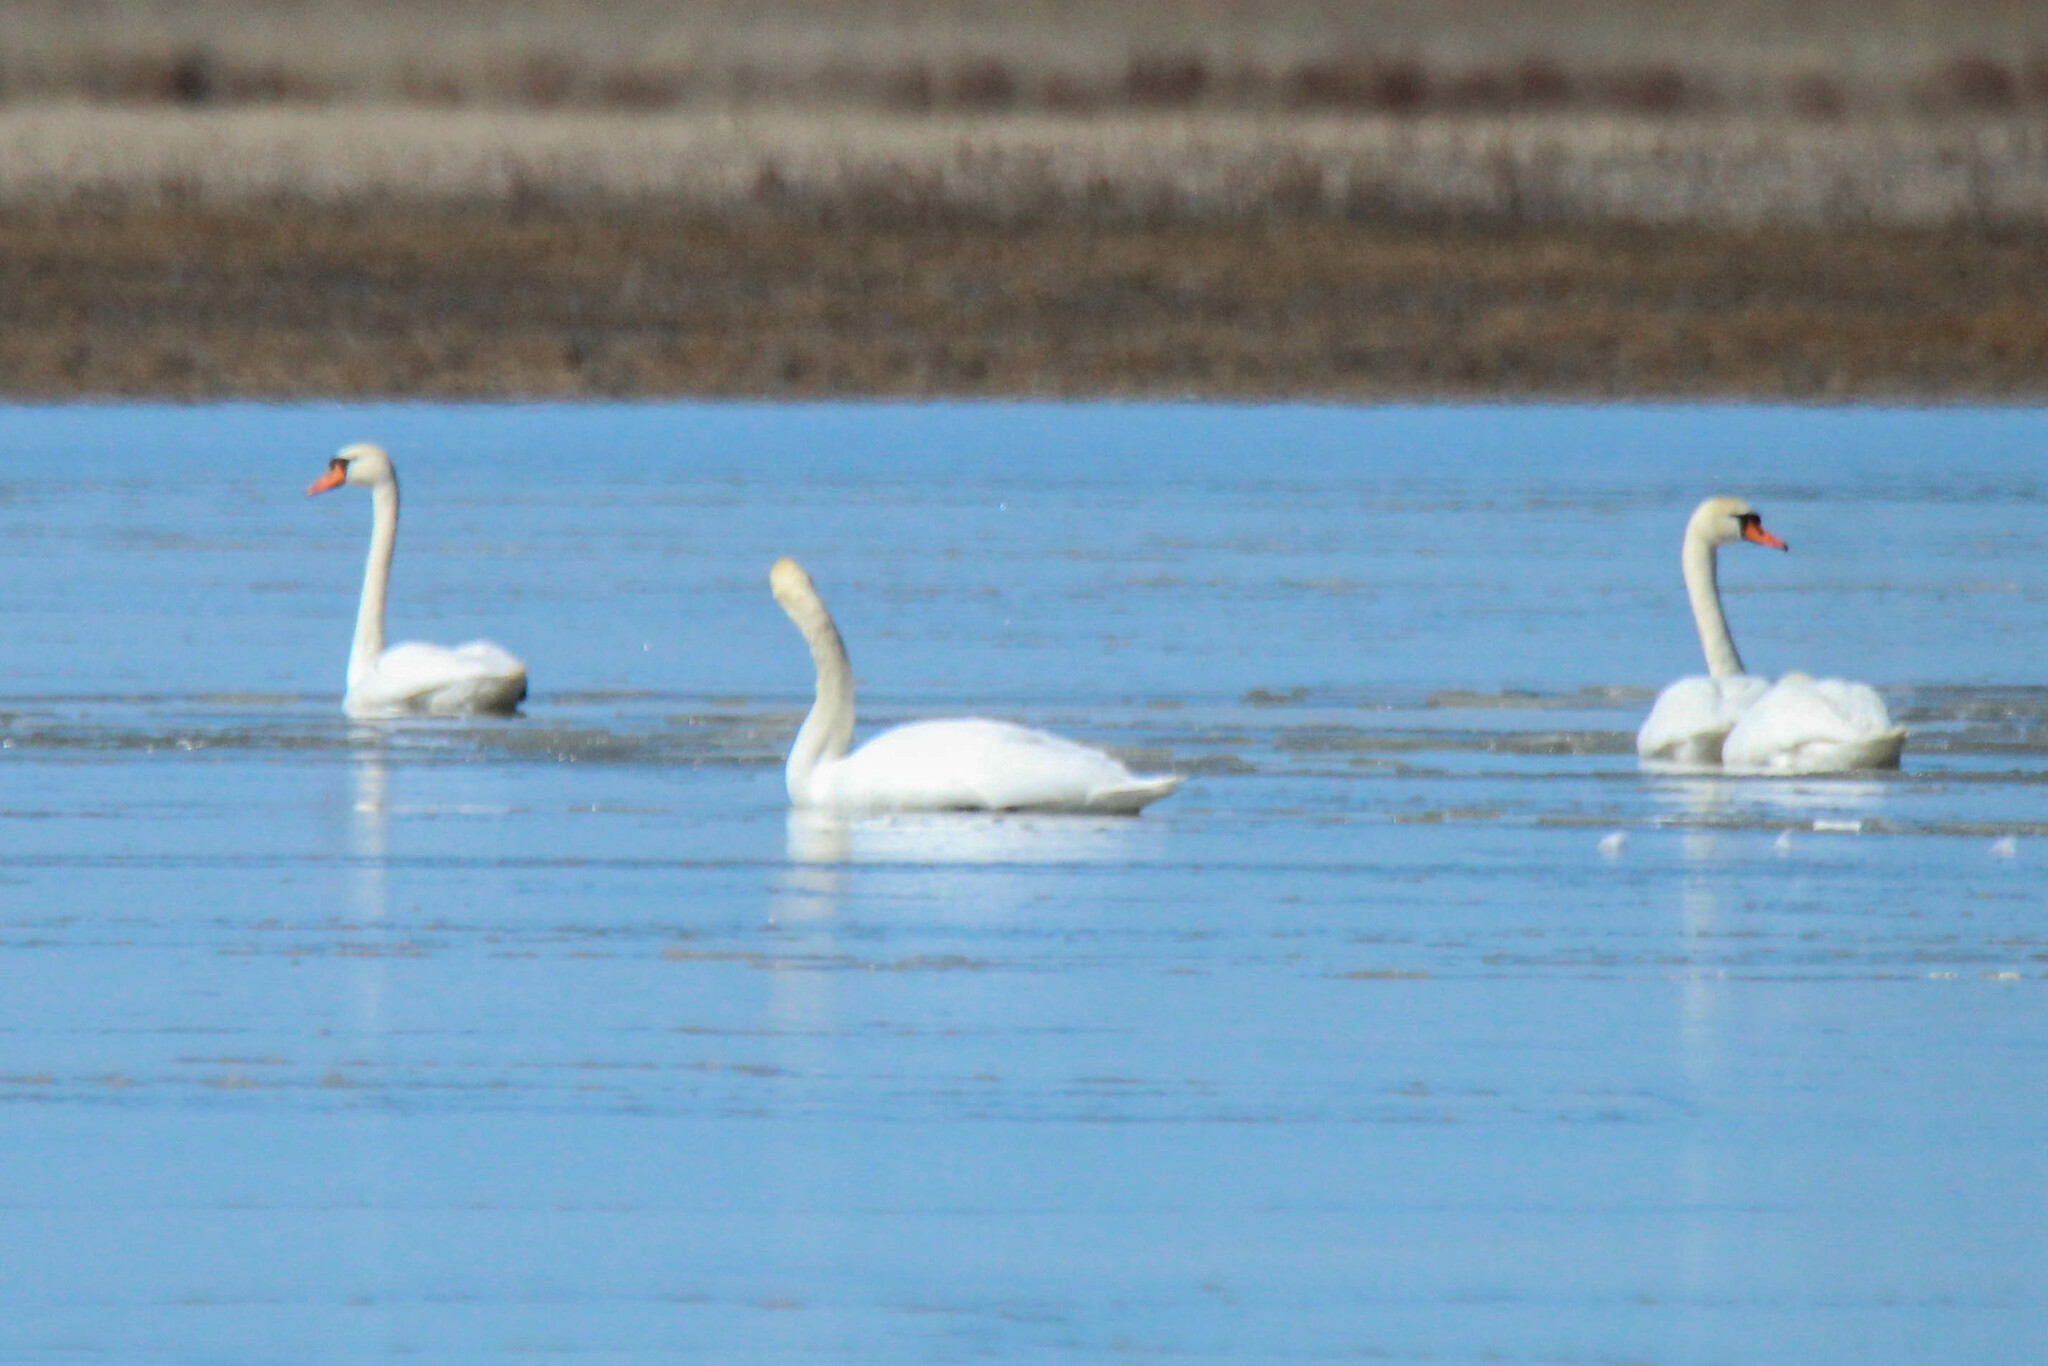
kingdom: Animalia
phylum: Chordata
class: Aves
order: Anseriformes
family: Anatidae
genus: Cygnus
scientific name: Cygnus olor
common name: Mute swan
